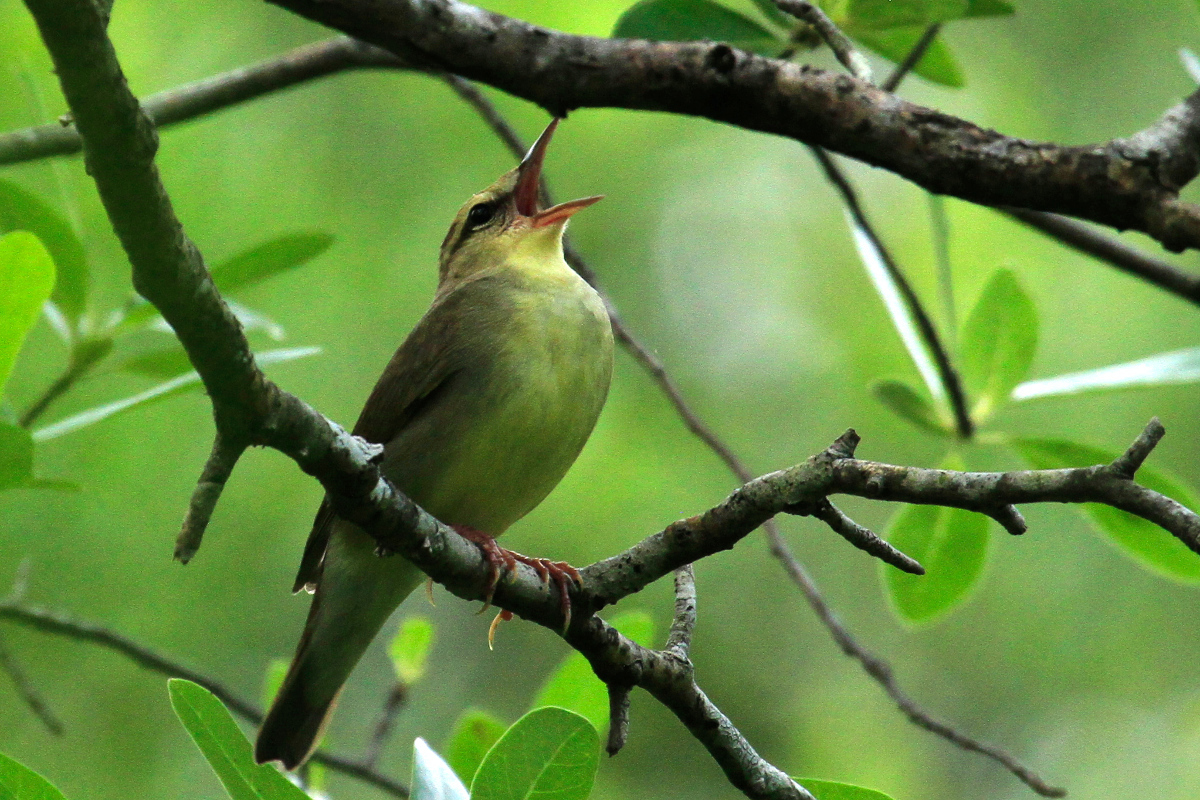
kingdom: Animalia
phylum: Chordata
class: Aves
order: Passeriformes
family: Parulidae
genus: Limnothlypis
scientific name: Limnothlypis swainsonii
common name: Swainson's warbler
